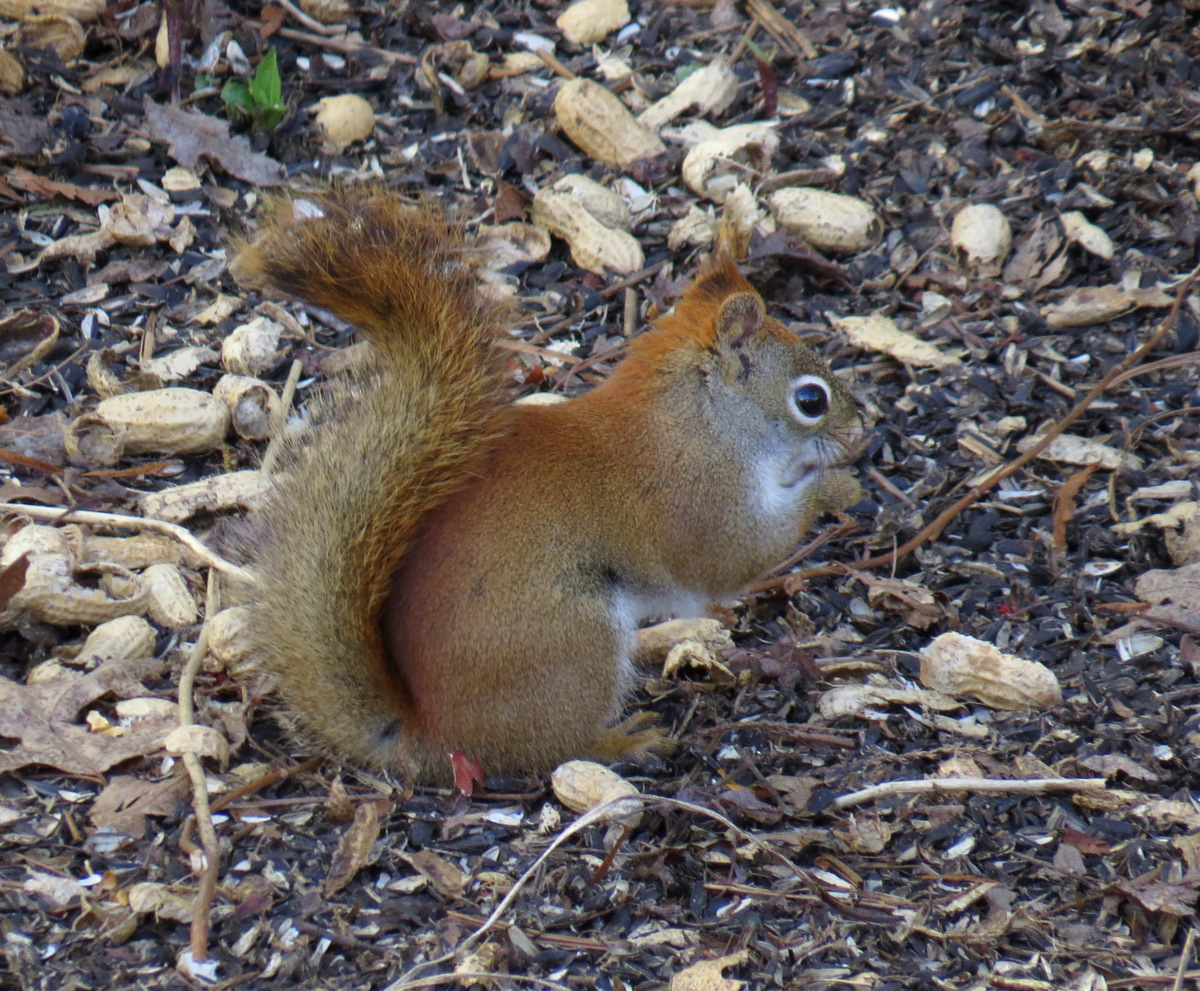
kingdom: Animalia
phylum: Chordata
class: Mammalia
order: Rodentia
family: Sciuridae
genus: Tamiasciurus
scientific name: Tamiasciurus hudsonicus
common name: Red squirrel
